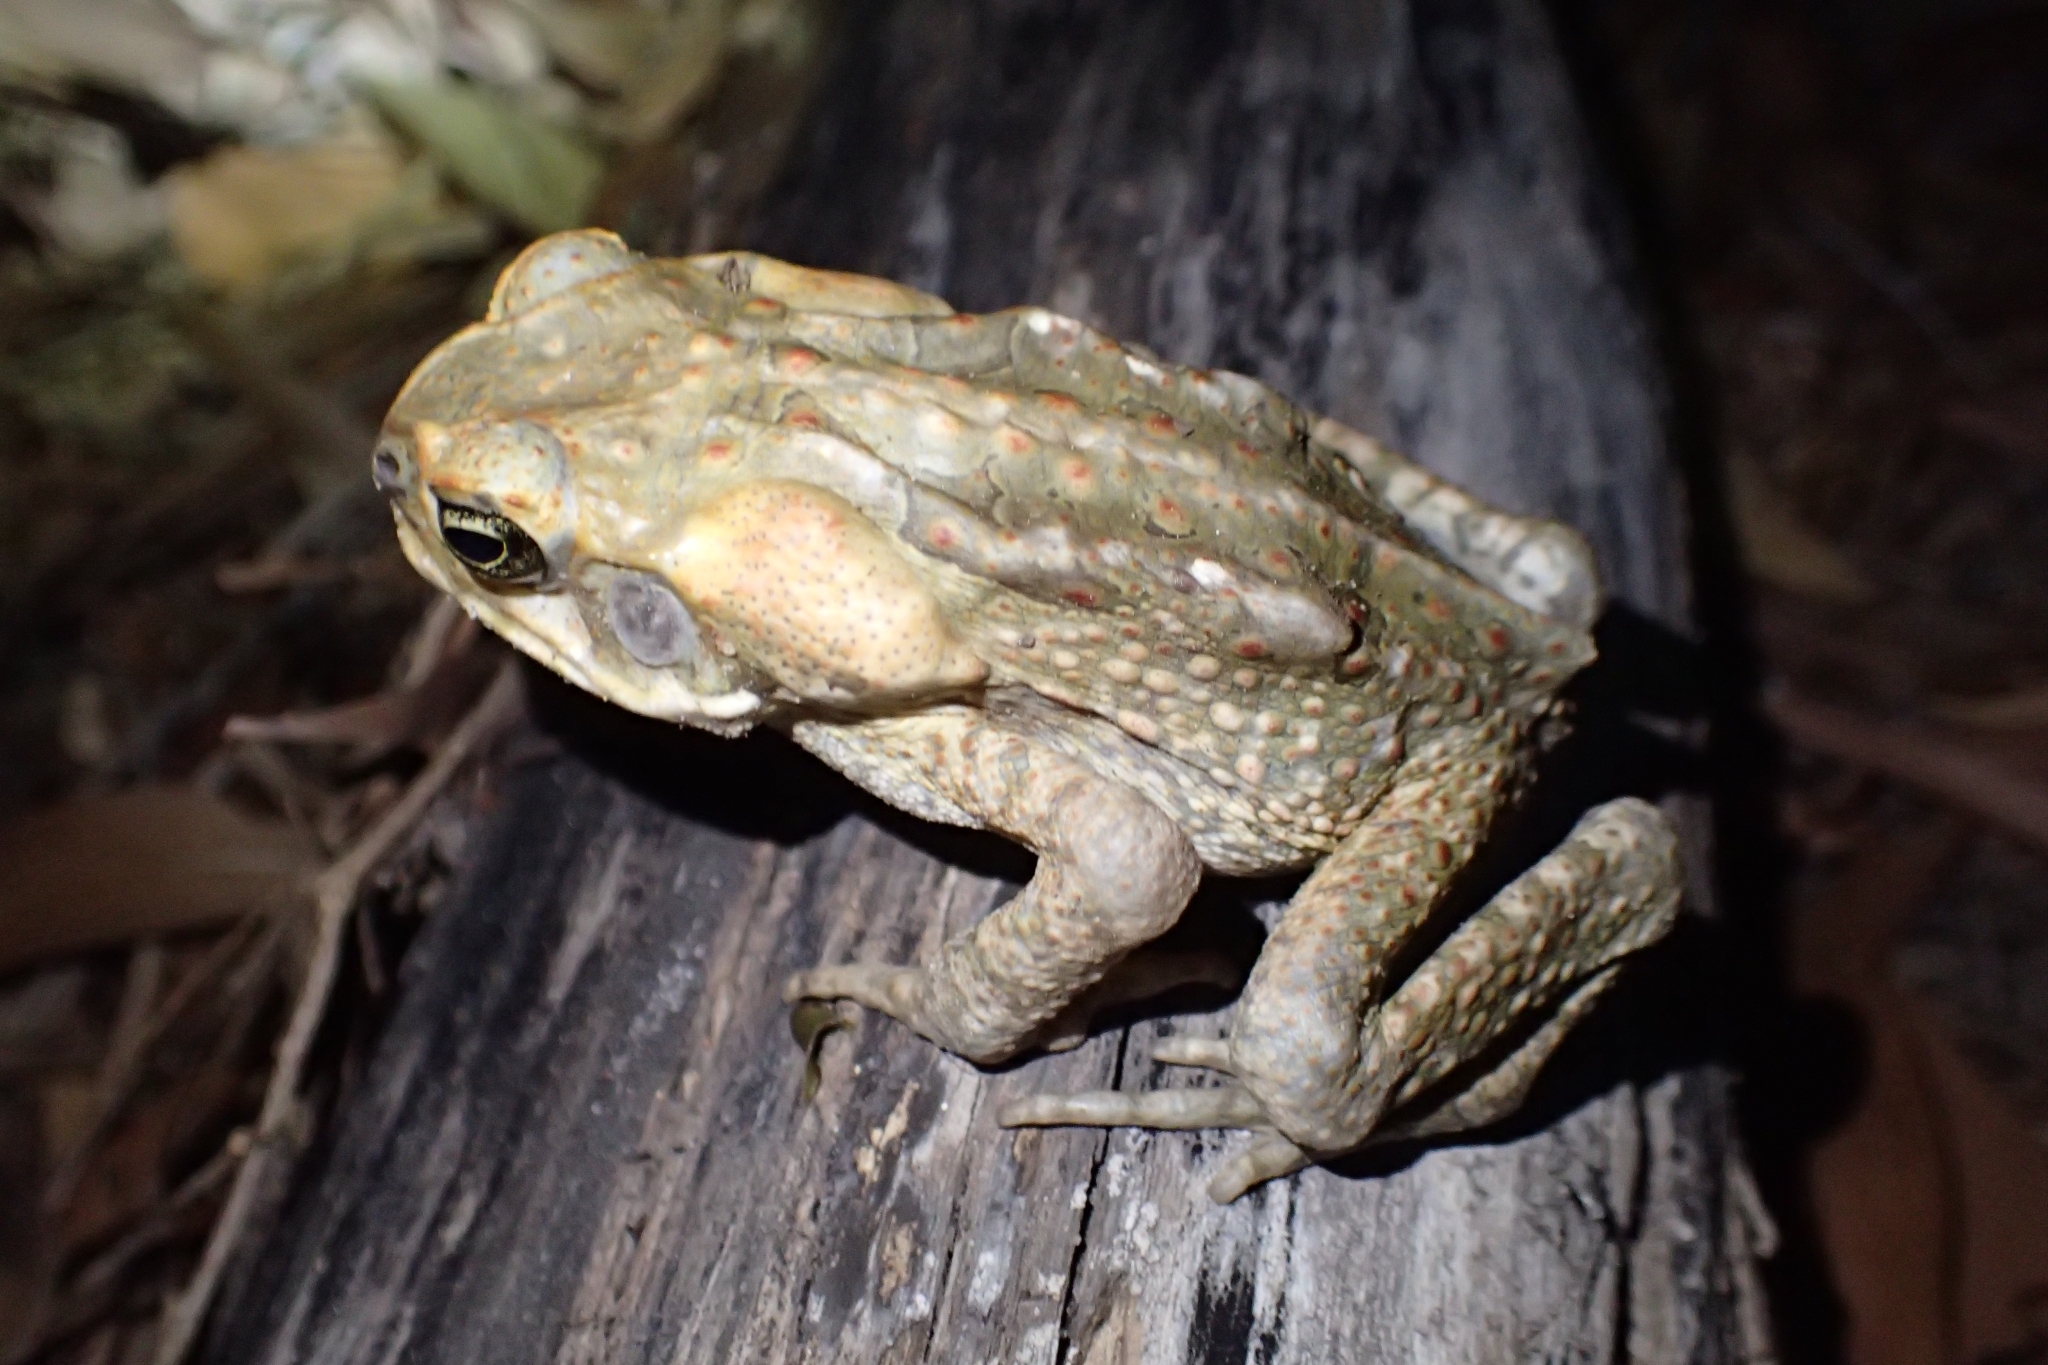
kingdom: Animalia
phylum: Chordata
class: Amphibia
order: Anura
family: Bufonidae
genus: Rhinella
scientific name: Rhinella marina
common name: Cane toad
